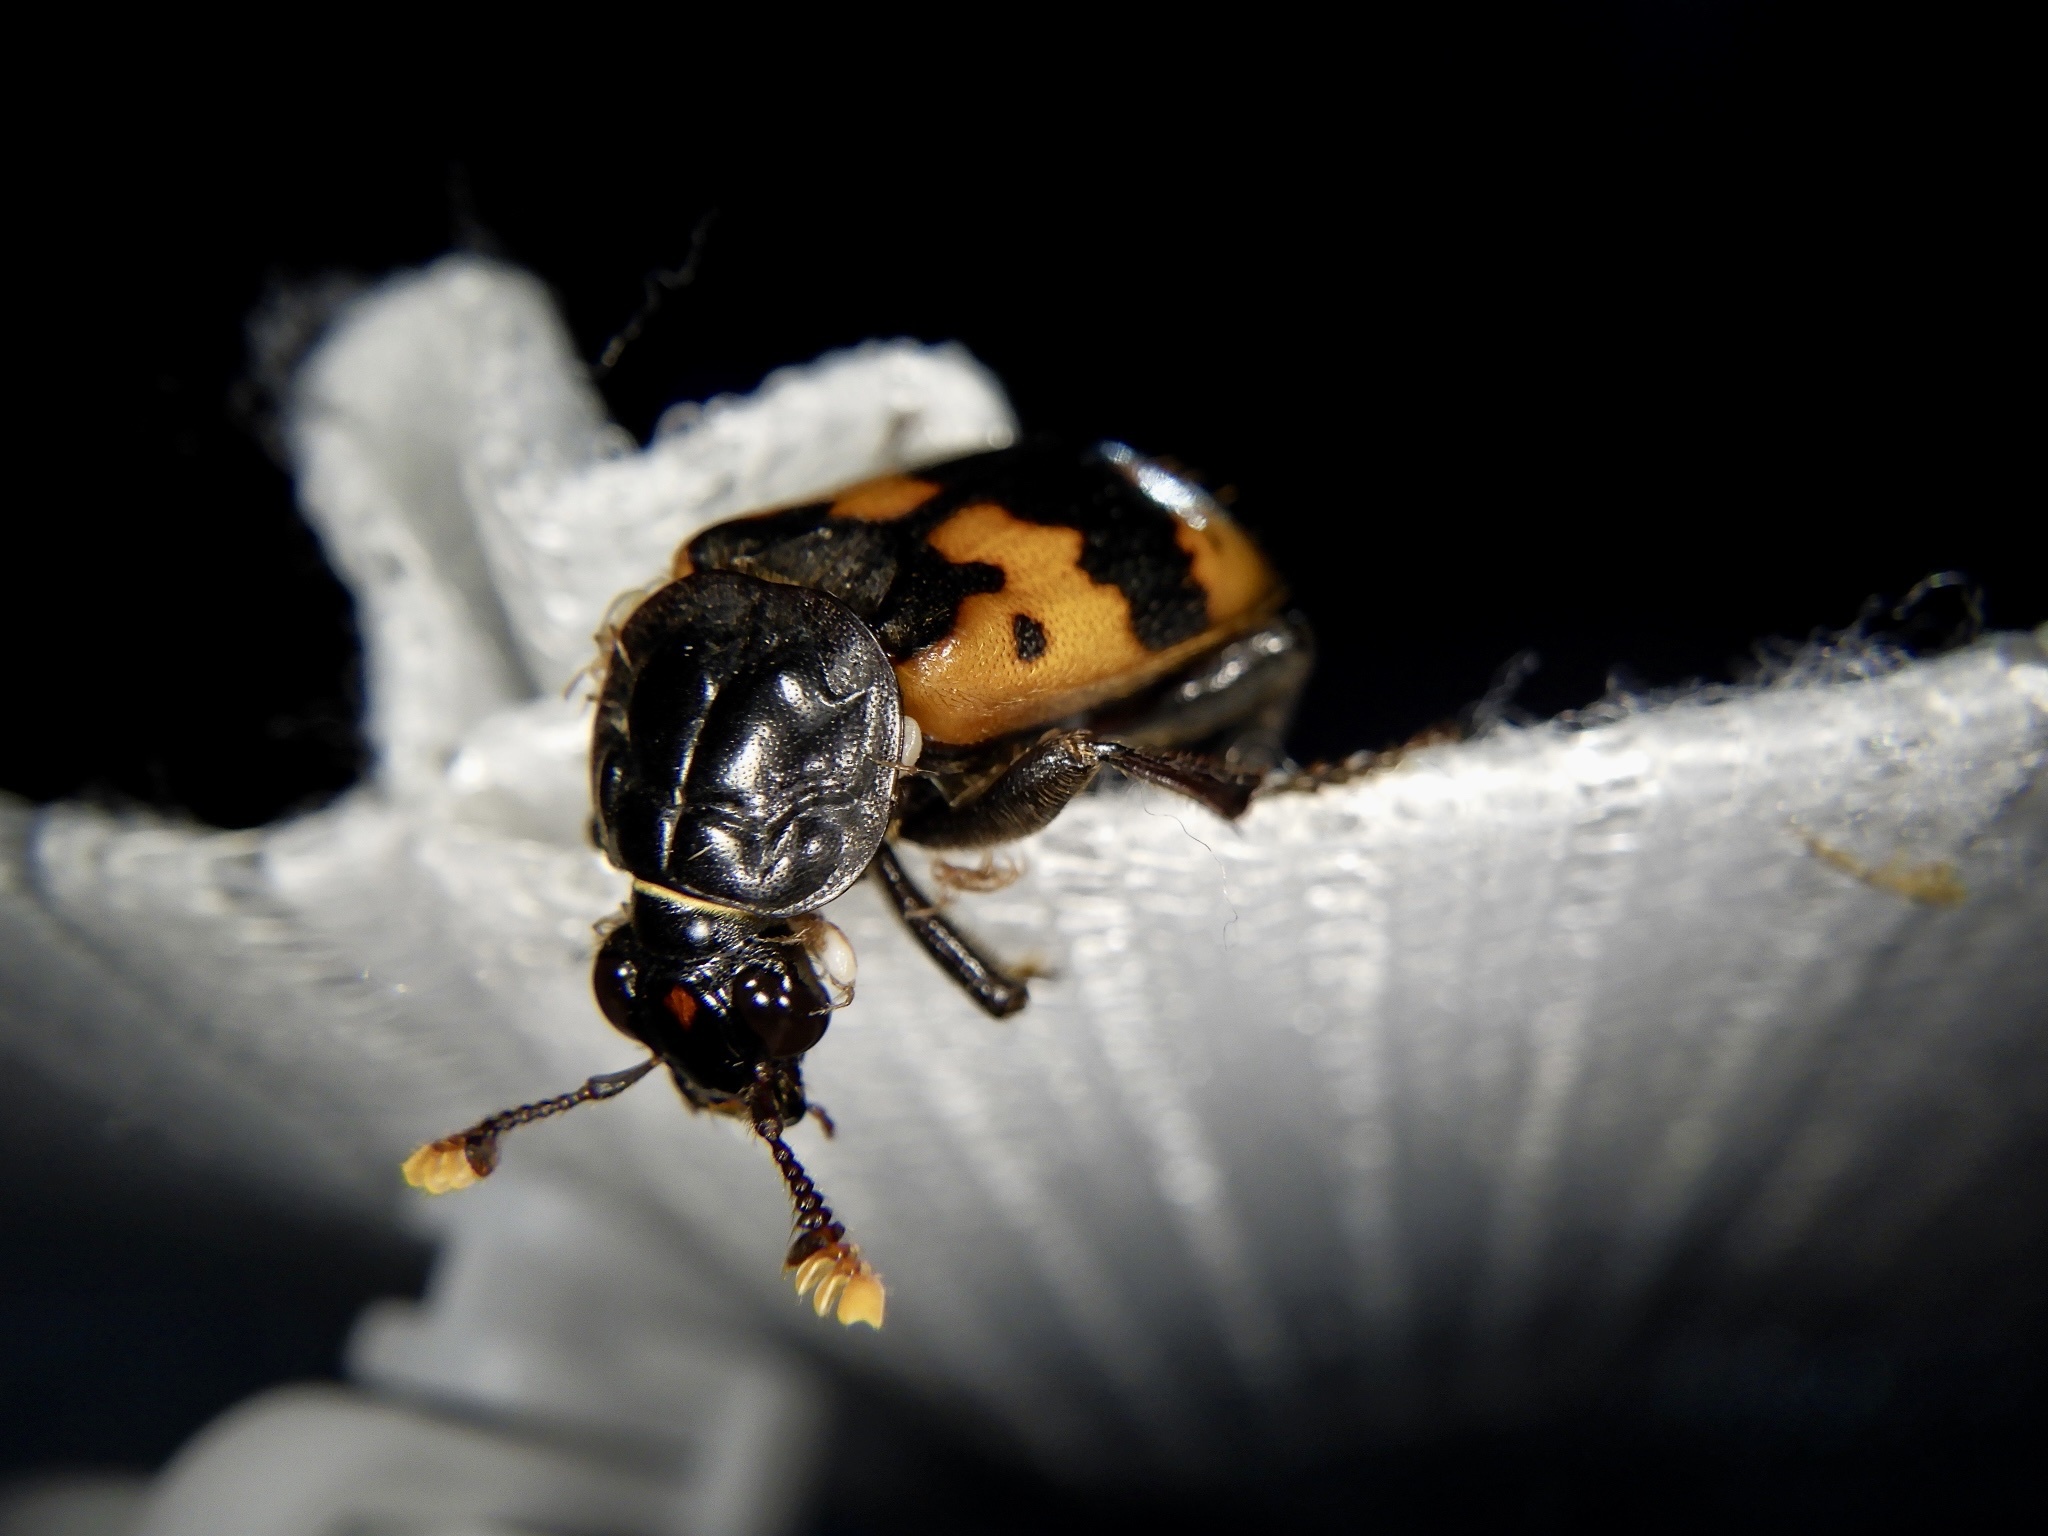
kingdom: Animalia
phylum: Arthropoda
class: Insecta
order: Coleoptera
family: Staphylinidae
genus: Nicrophorus
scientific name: Nicrophorus quadripunctatus
